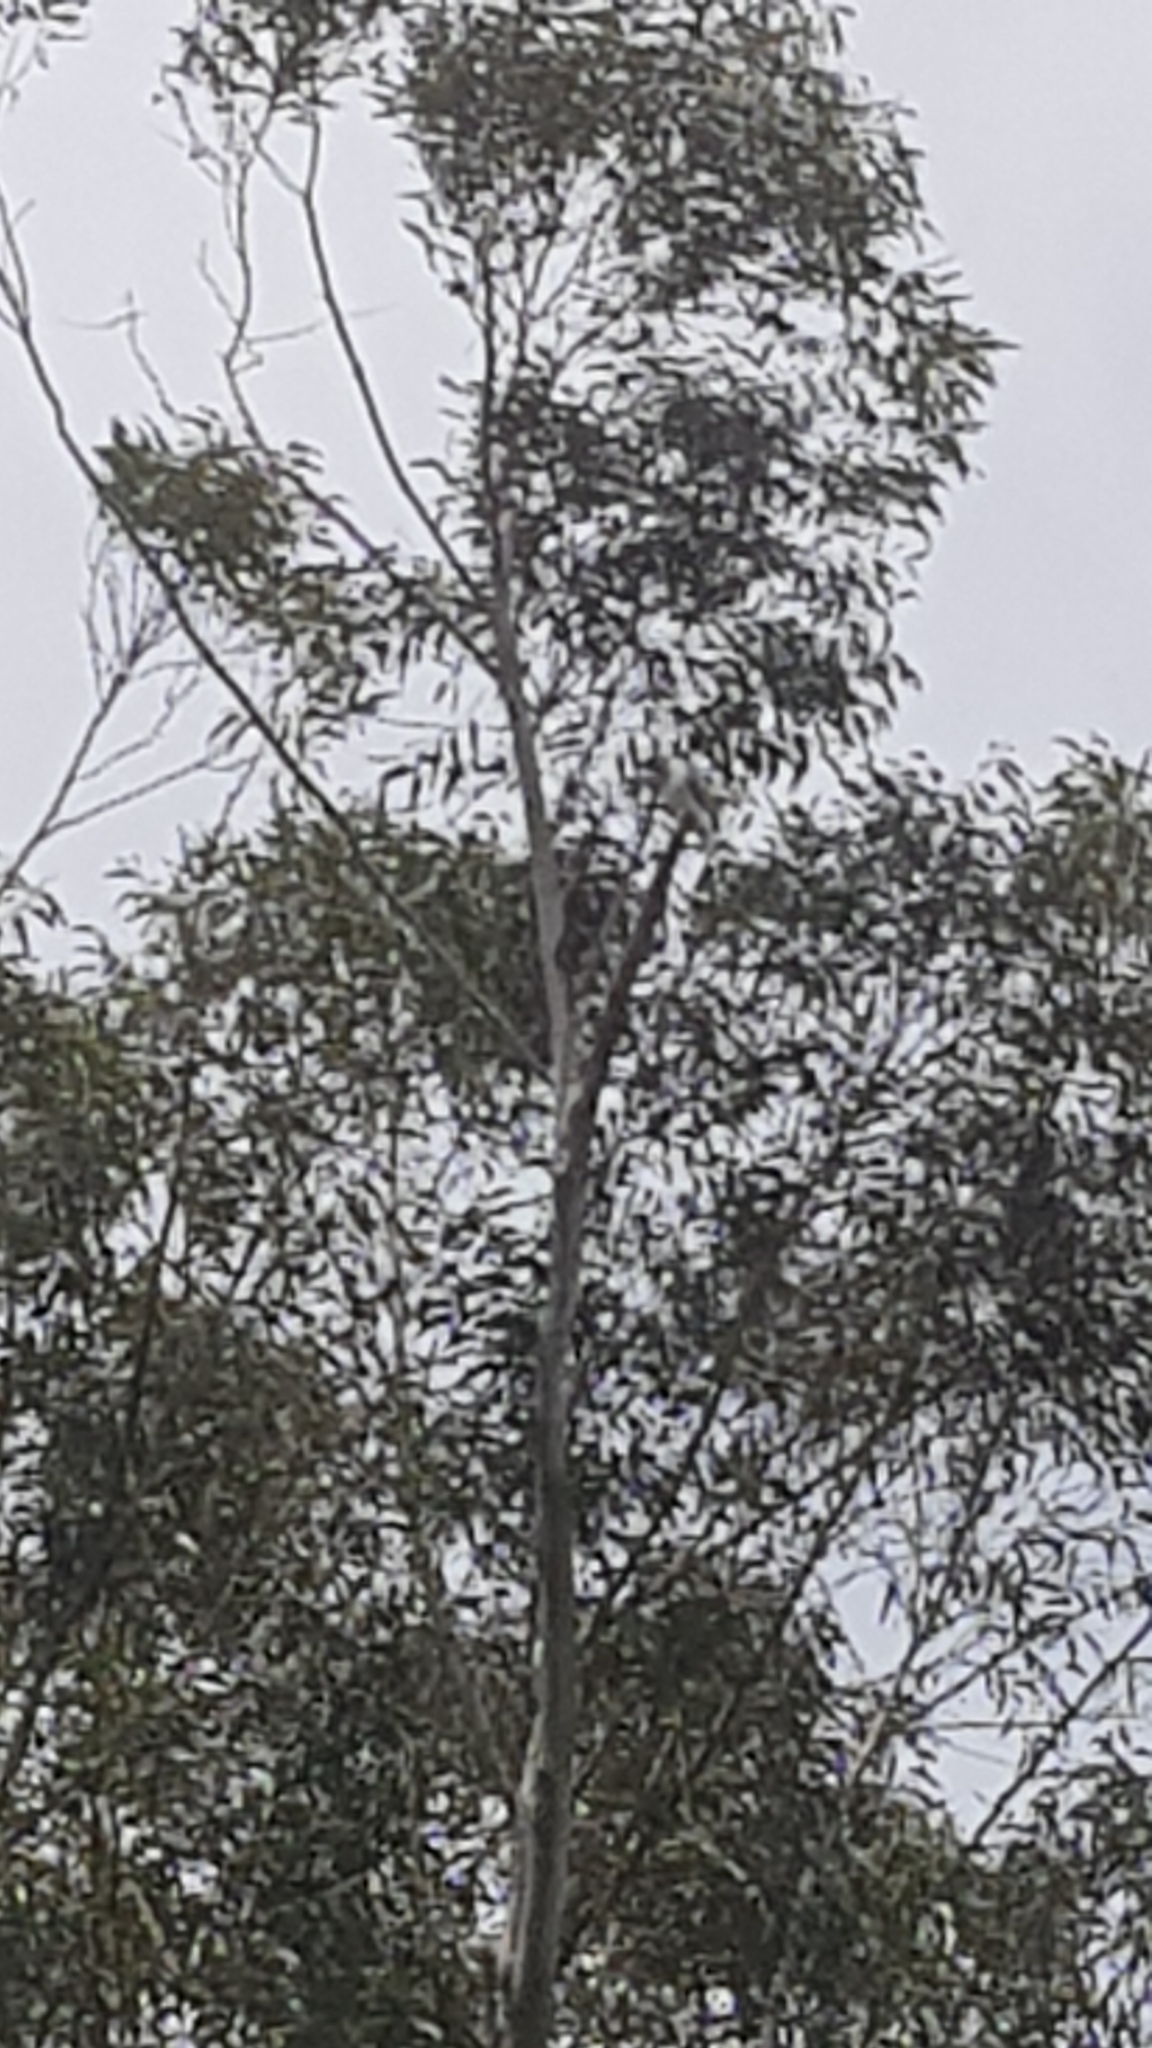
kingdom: Animalia
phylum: Chordata
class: Aves
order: Accipitriformes
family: Accipitridae
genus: Accipiter
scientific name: Accipiter novaehollandiae
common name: Grey goshawk
